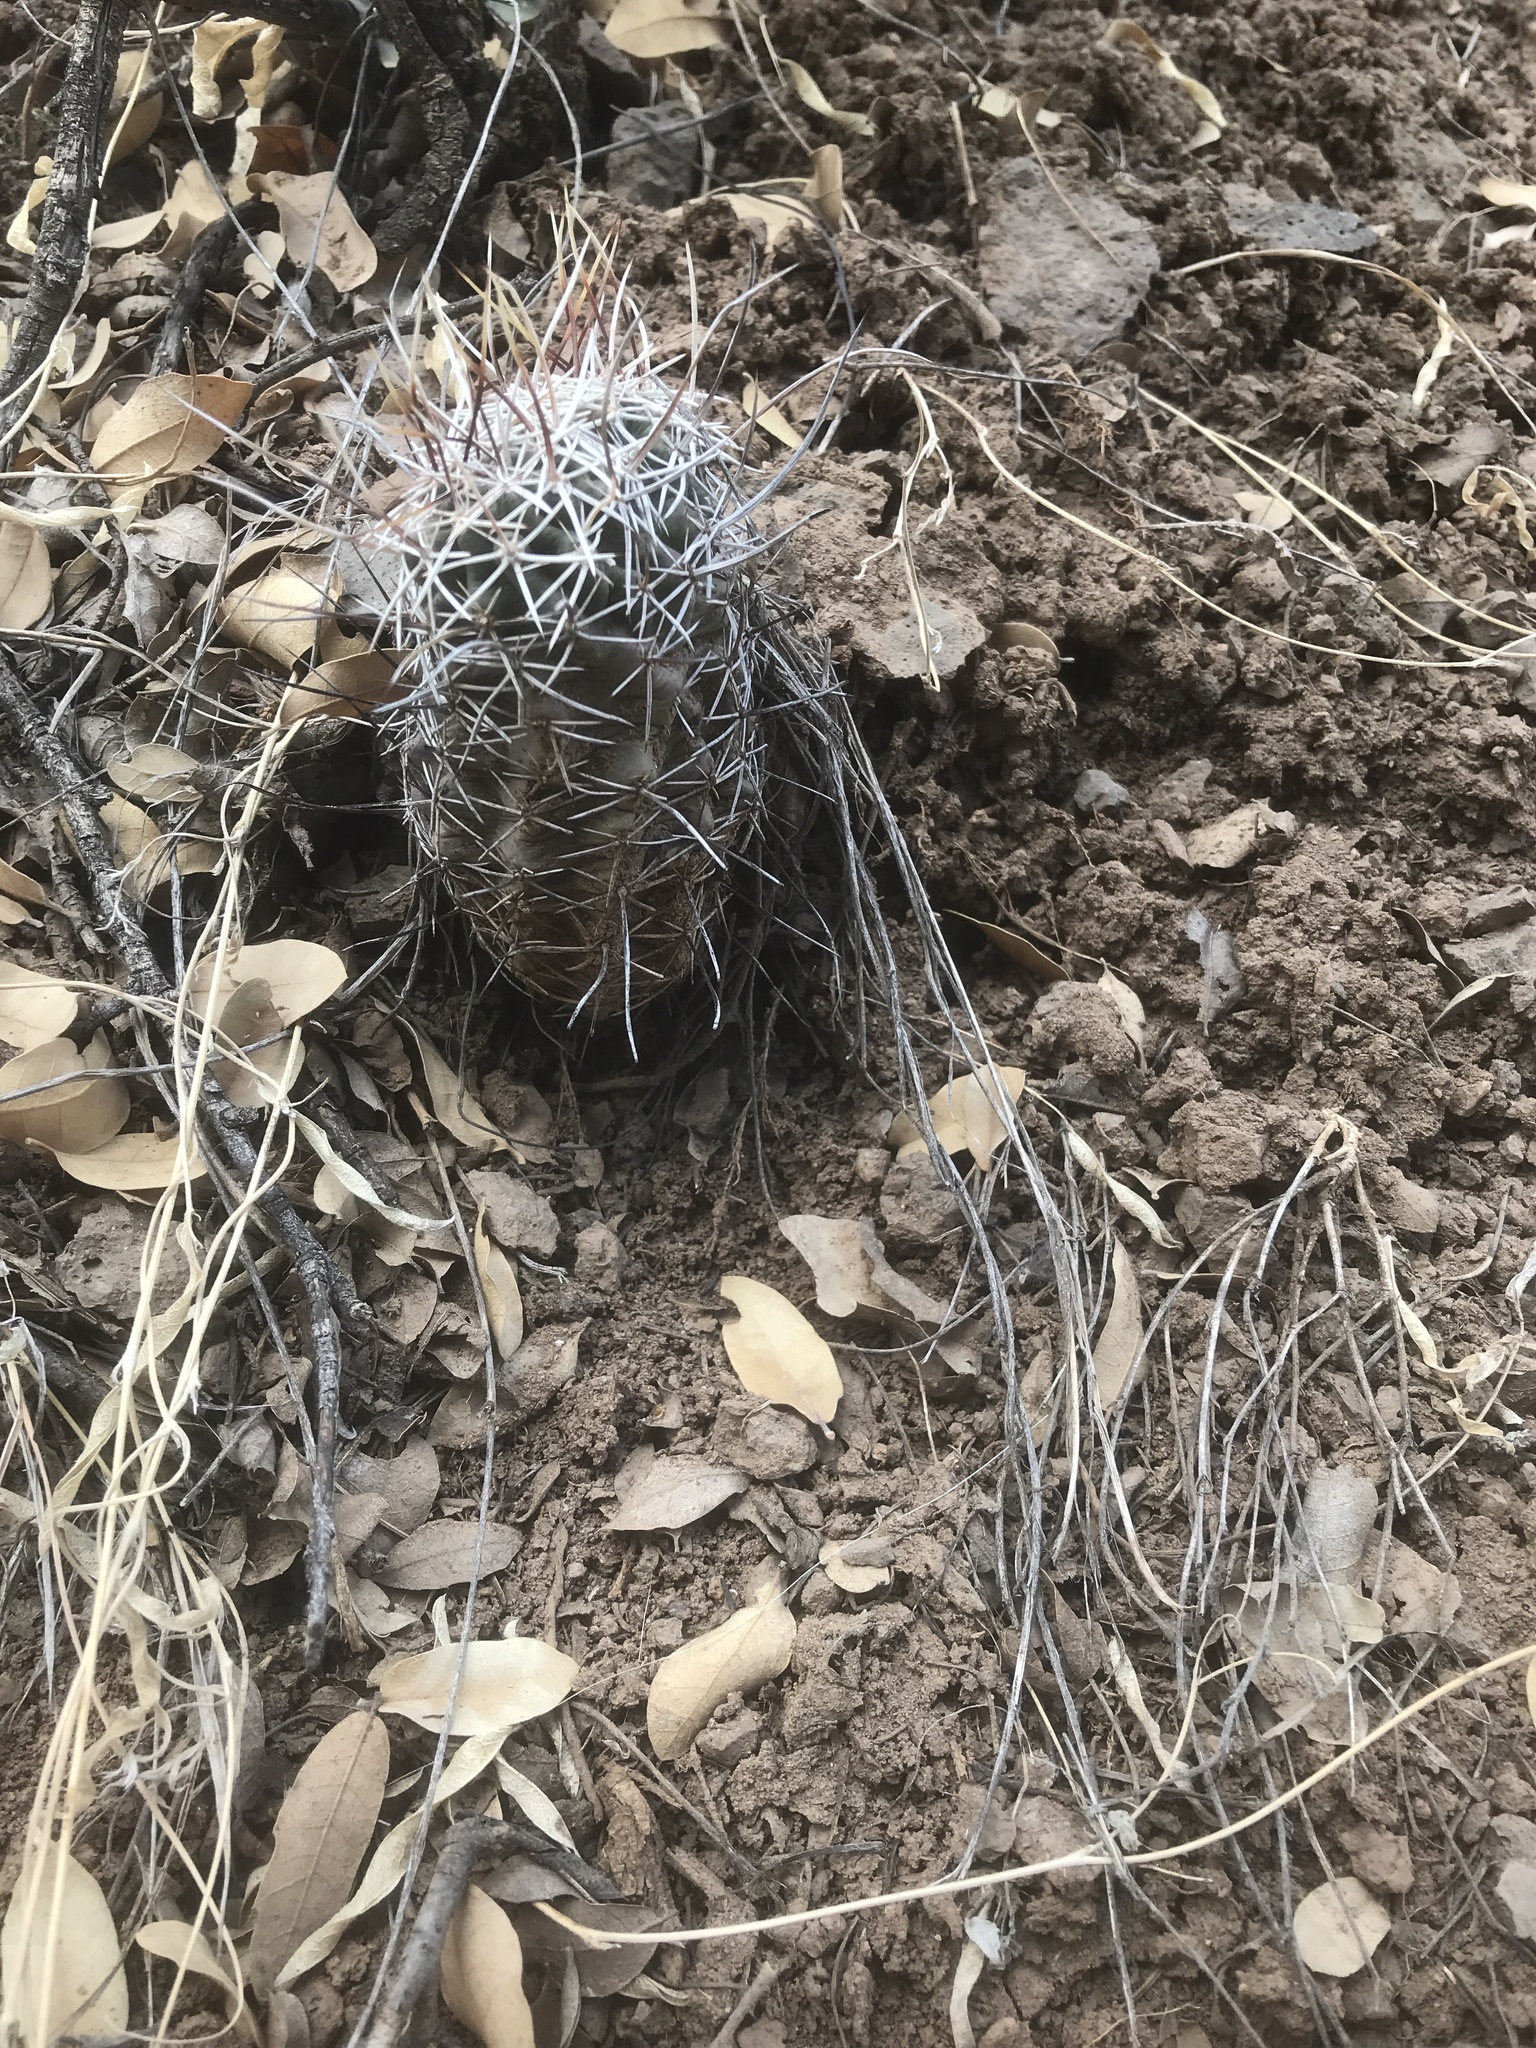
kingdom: Plantae
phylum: Tracheophyta
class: Magnoliopsida
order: Caryophyllales
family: Cactaceae
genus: Echinocereus
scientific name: Echinocereus fendleri
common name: Fendler's hedgehog cactus
